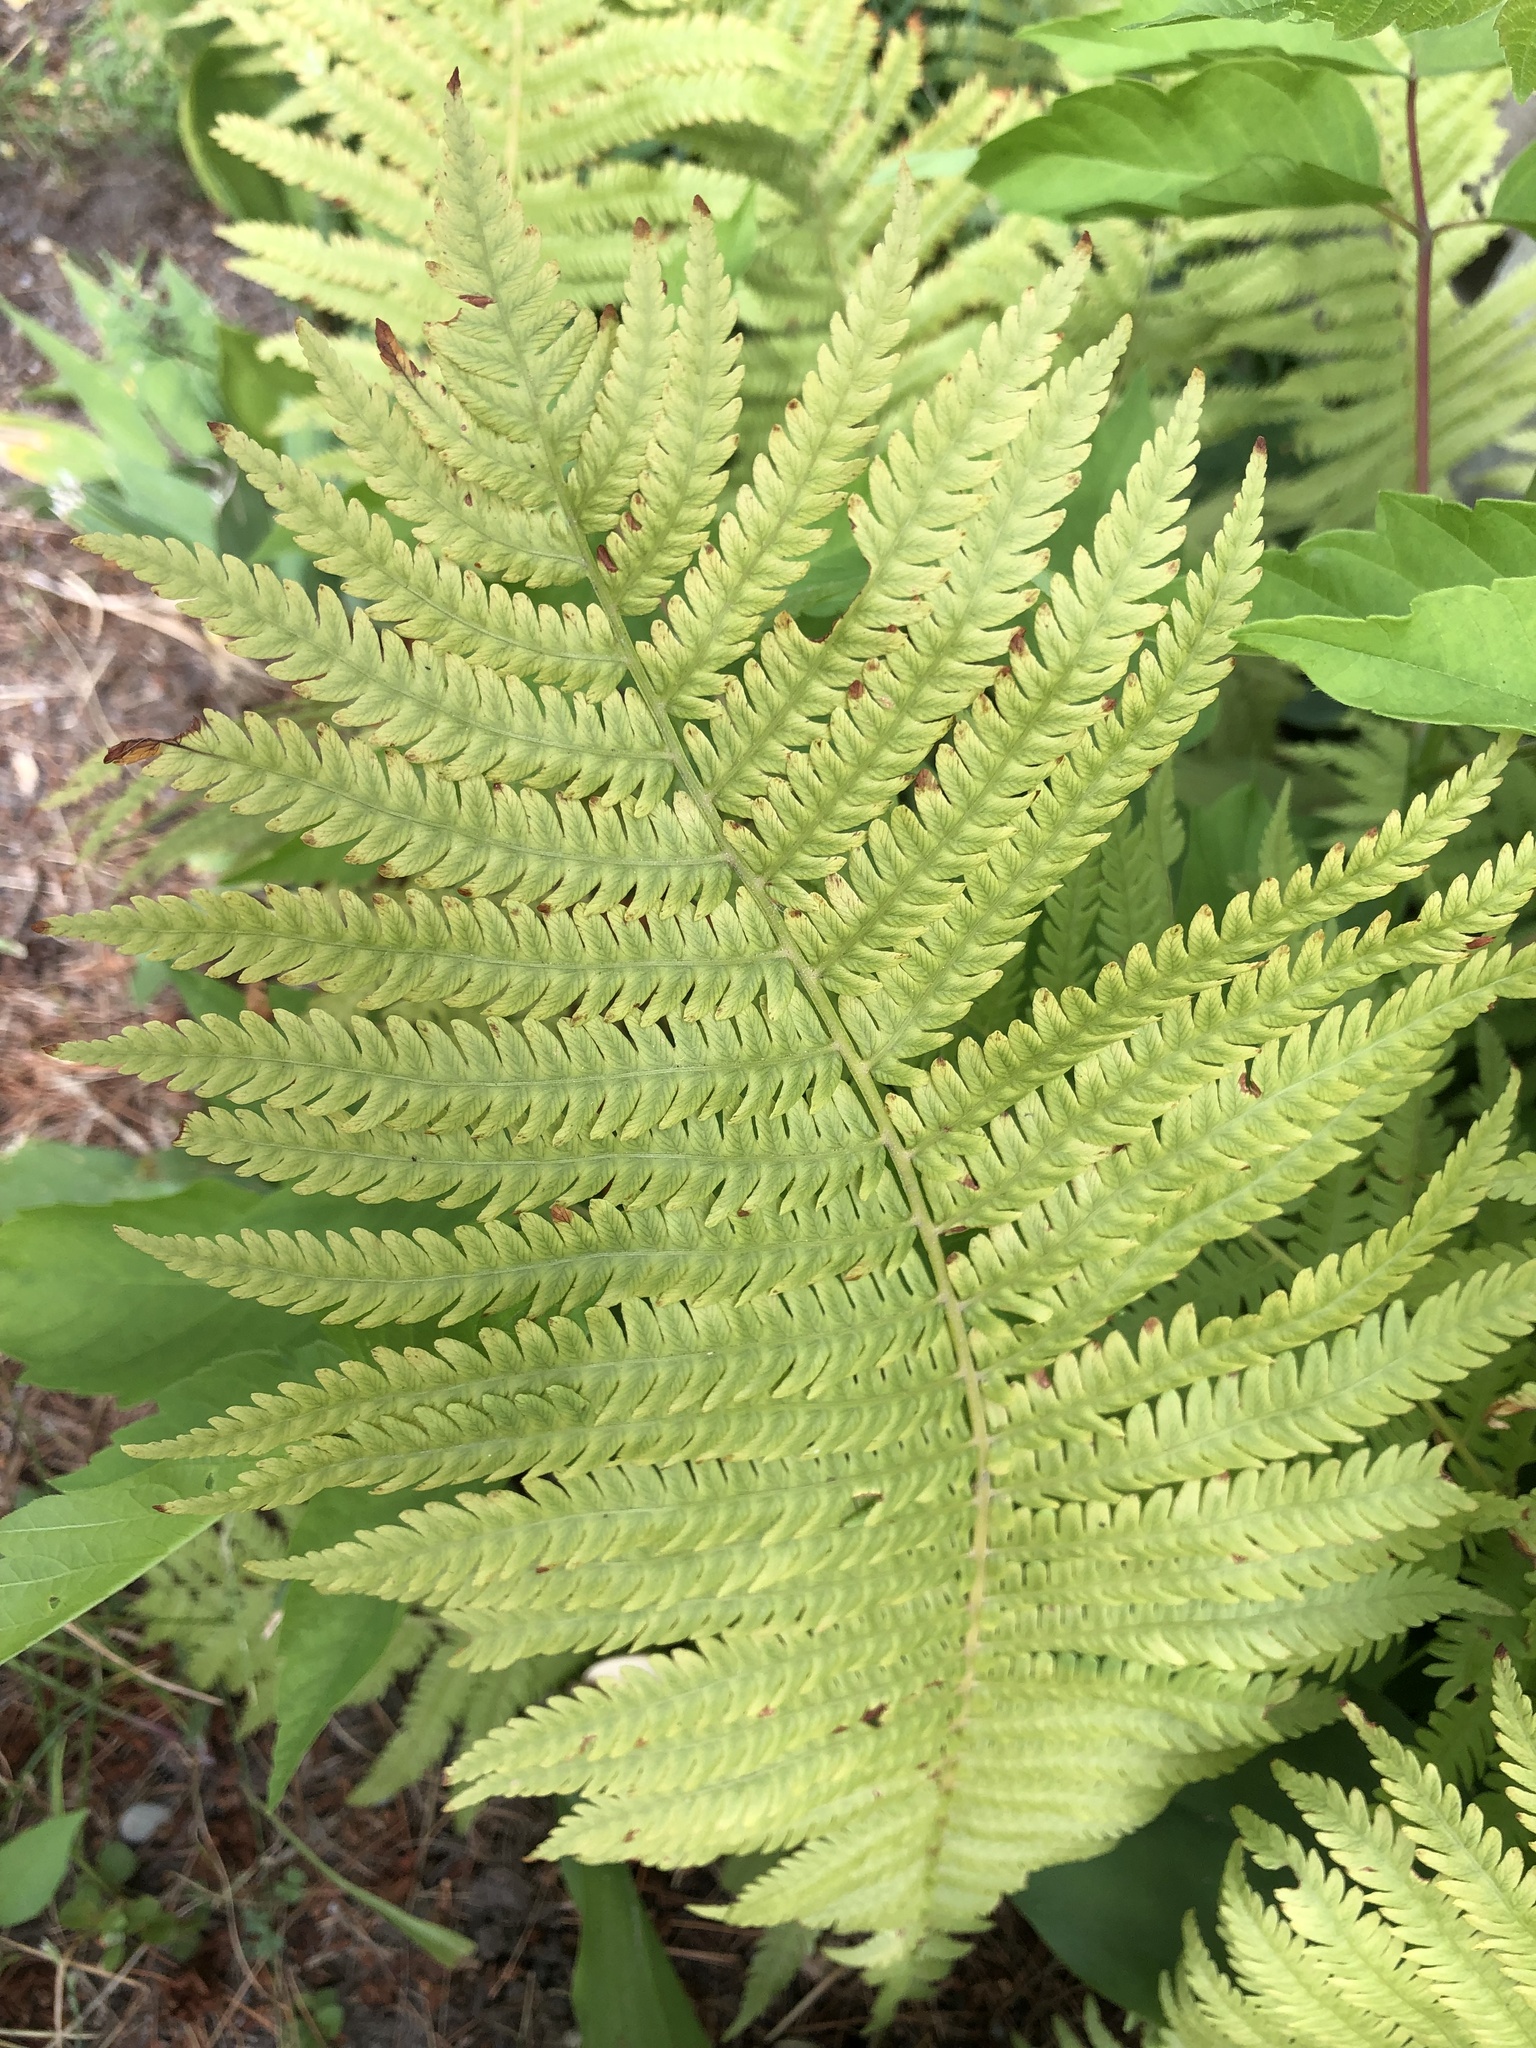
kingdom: Plantae
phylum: Tracheophyta
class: Polypodiopsida
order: Polypodiales
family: Onocleaceae
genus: Matteuccia
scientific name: Matteuccia struthiopteris
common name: Ostrich fern
